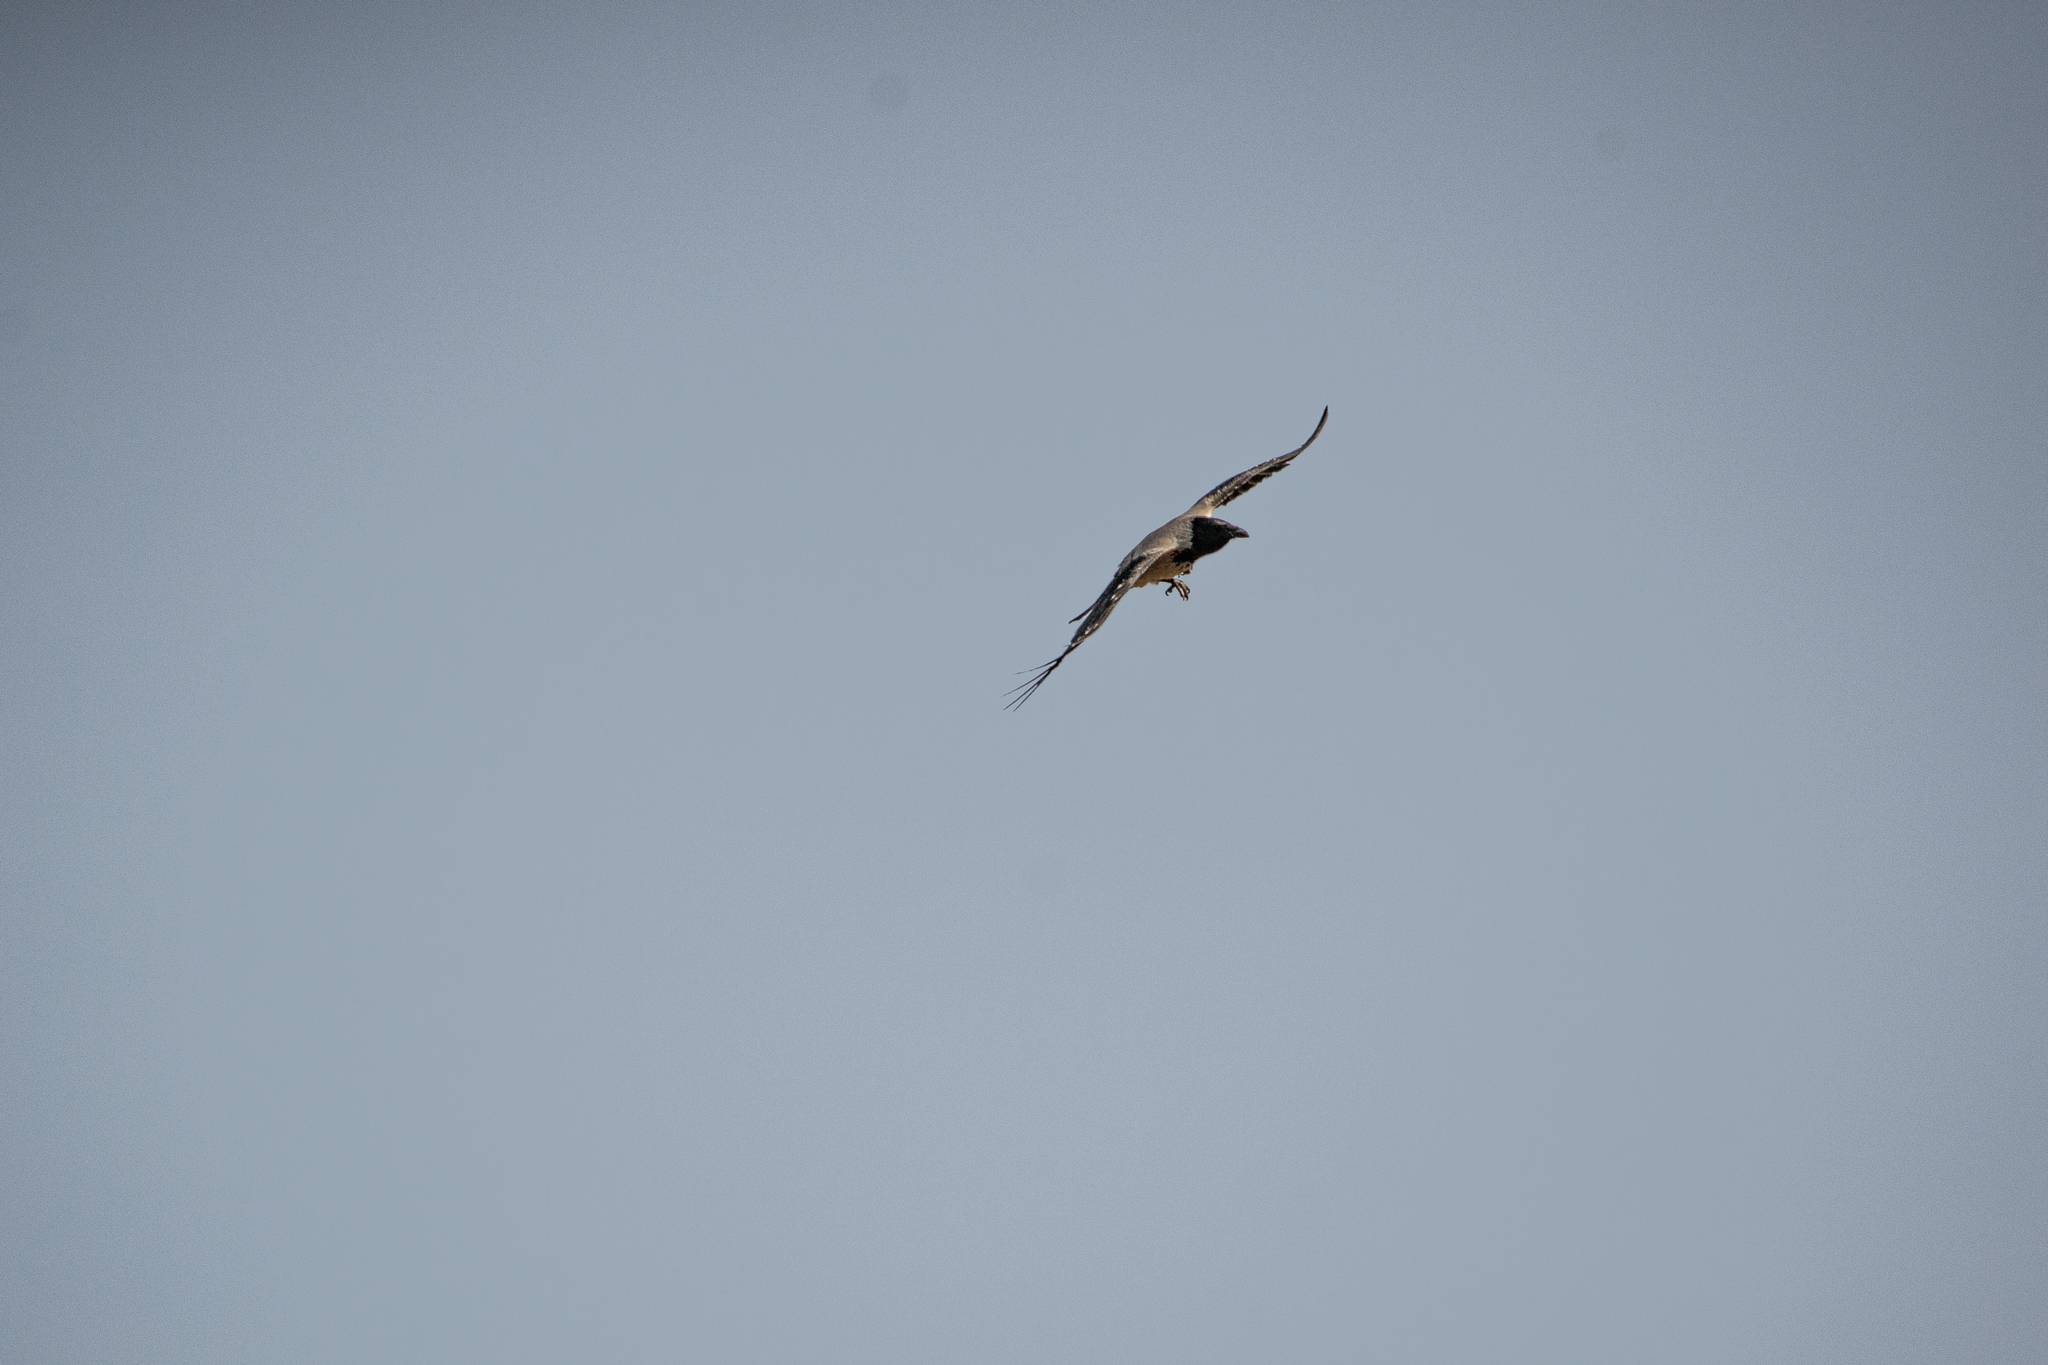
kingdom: Animalia
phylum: Chordata
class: Aves
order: Passeriformes
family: Corvidae
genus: Corvus
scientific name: Corvus cornix
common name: Hooded crow
